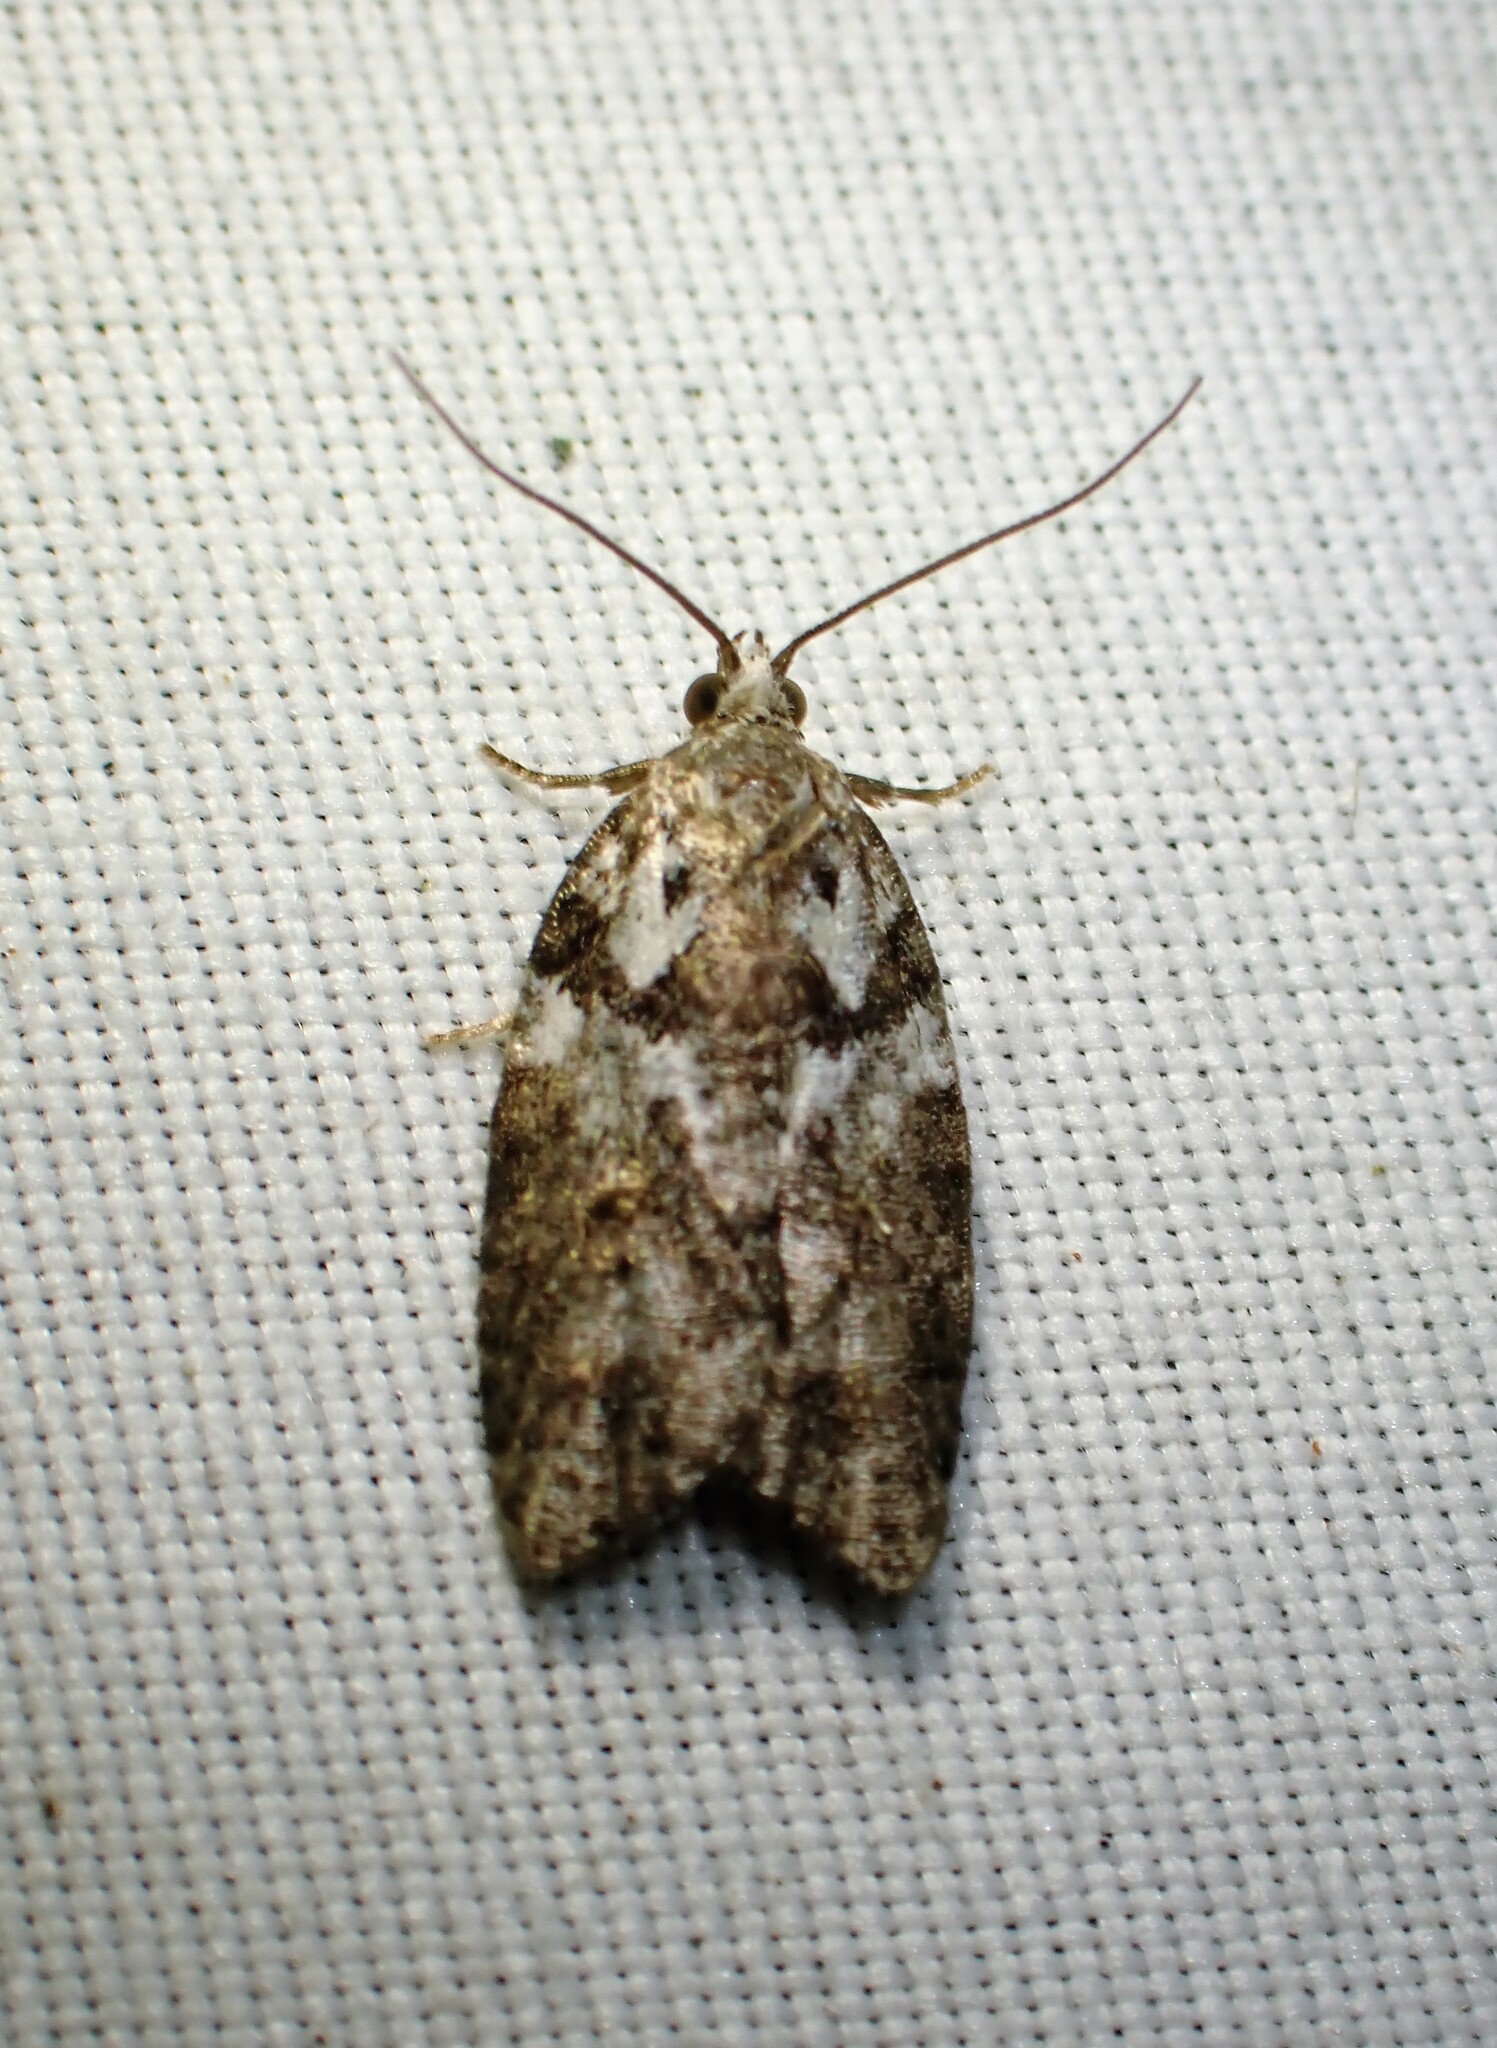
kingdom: Animalia
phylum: Arthropoda
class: Insecta
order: Lepidoptera
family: Tortricidae
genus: Acleris
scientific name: Acleris variana
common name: Eastern black-headed budworm moth
